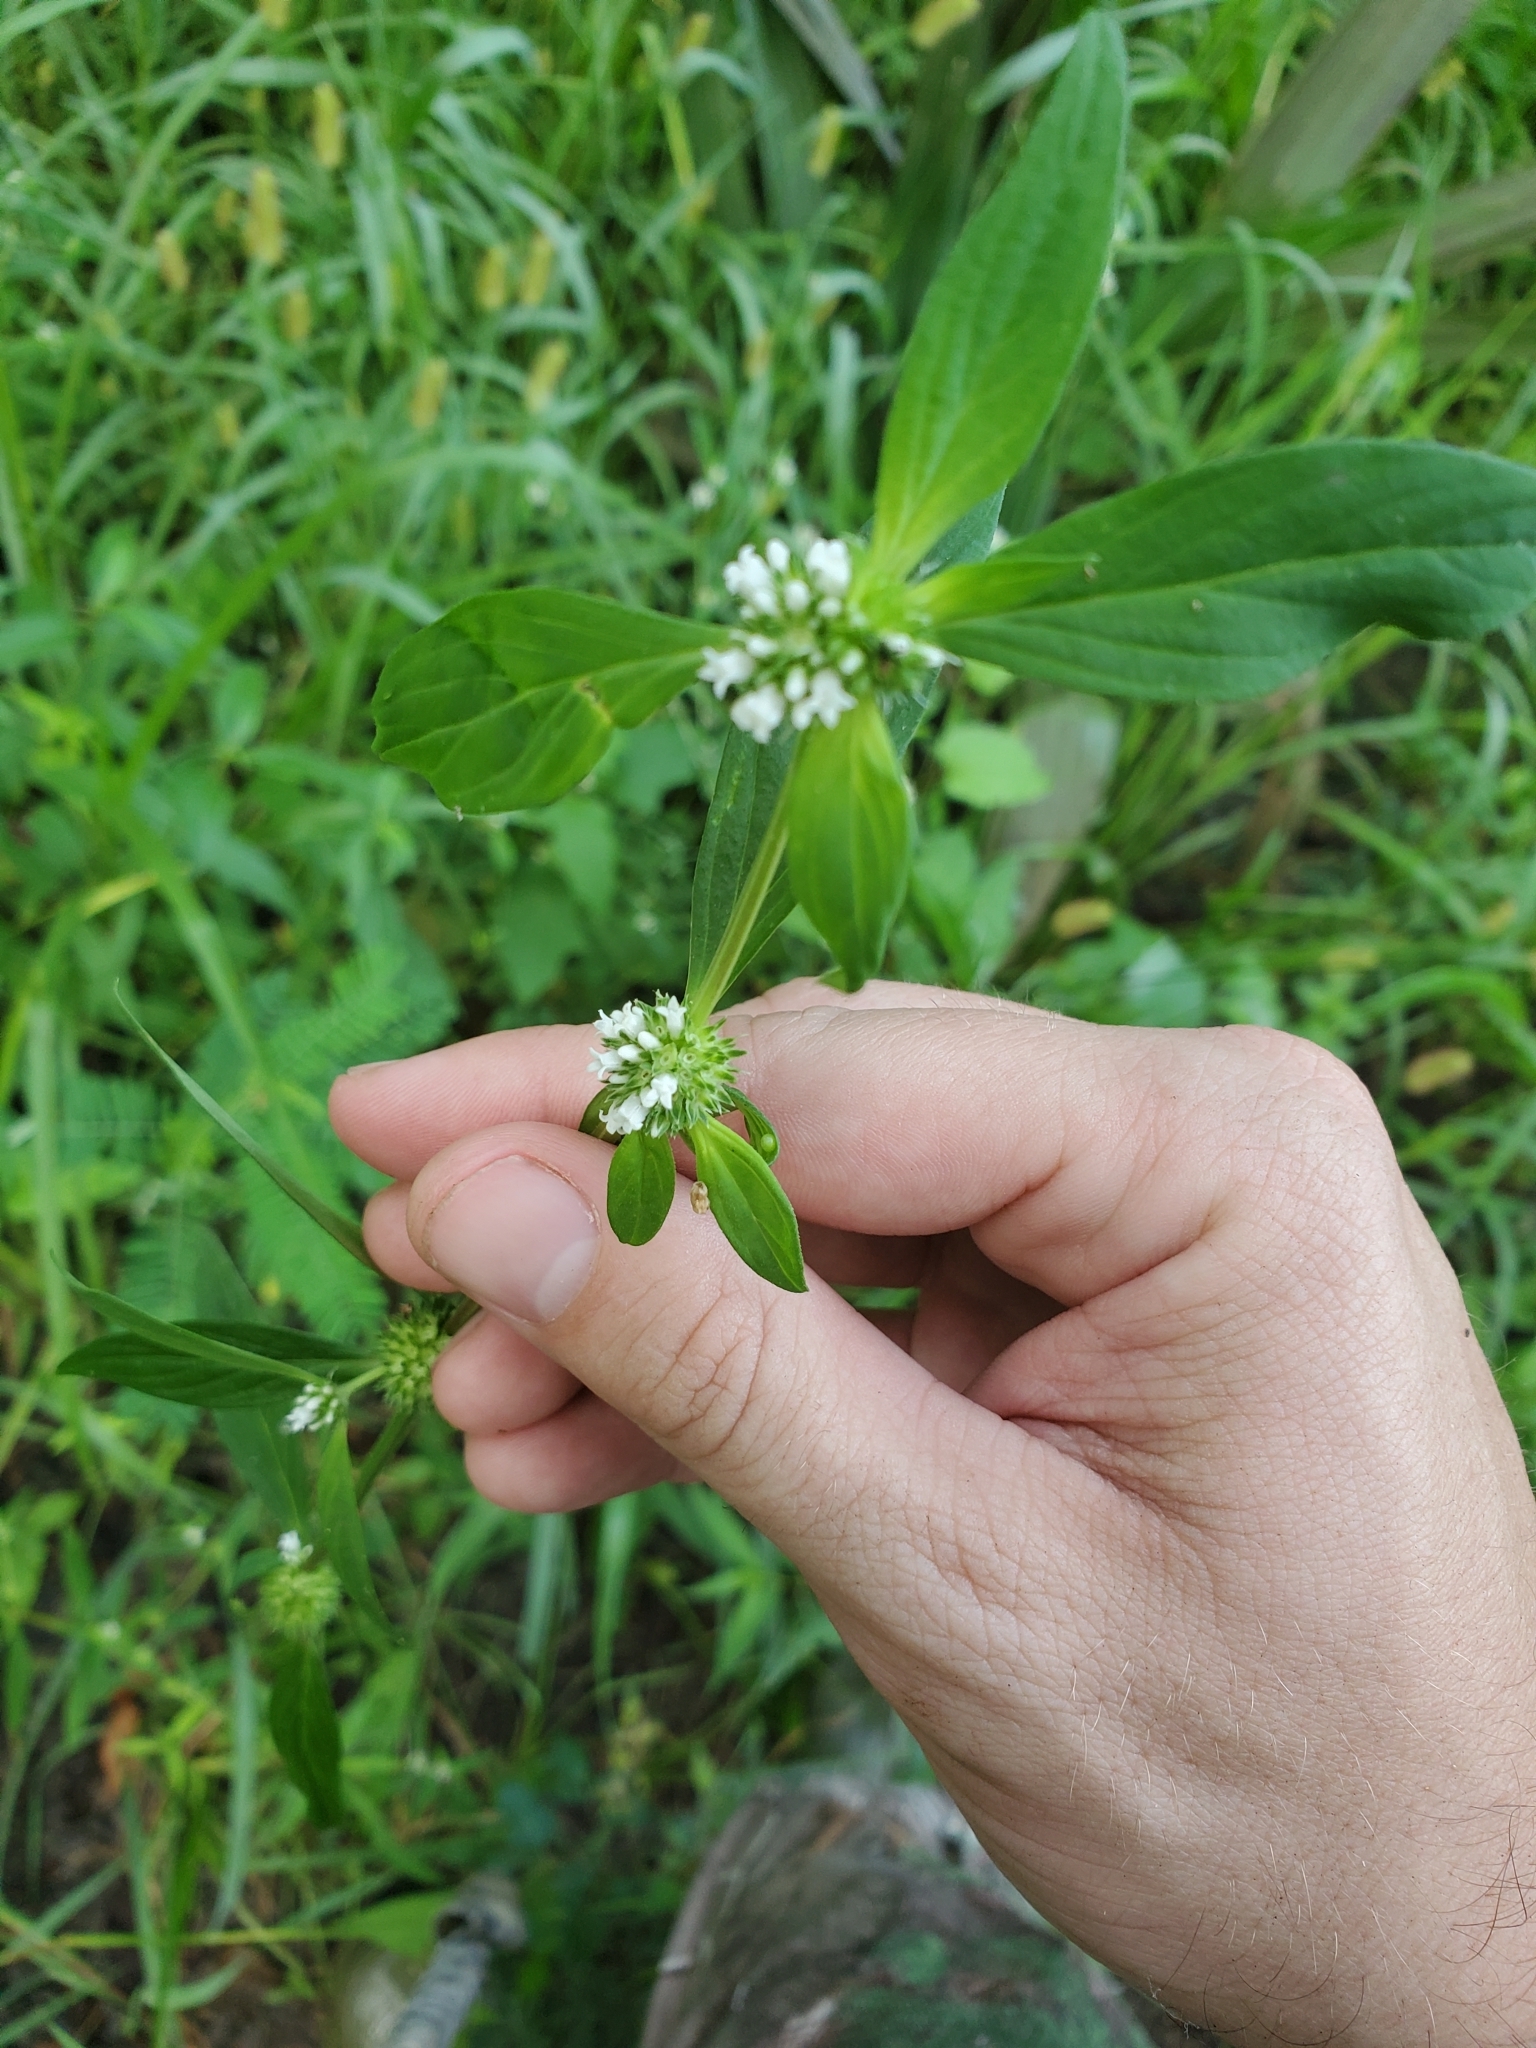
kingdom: Plantae
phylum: Tracheophyta
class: Magnoliopsida
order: Gentianales
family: Rubiaceae
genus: Spermacoce
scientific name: Spermacoce glabra
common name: Smooth buttonweed
